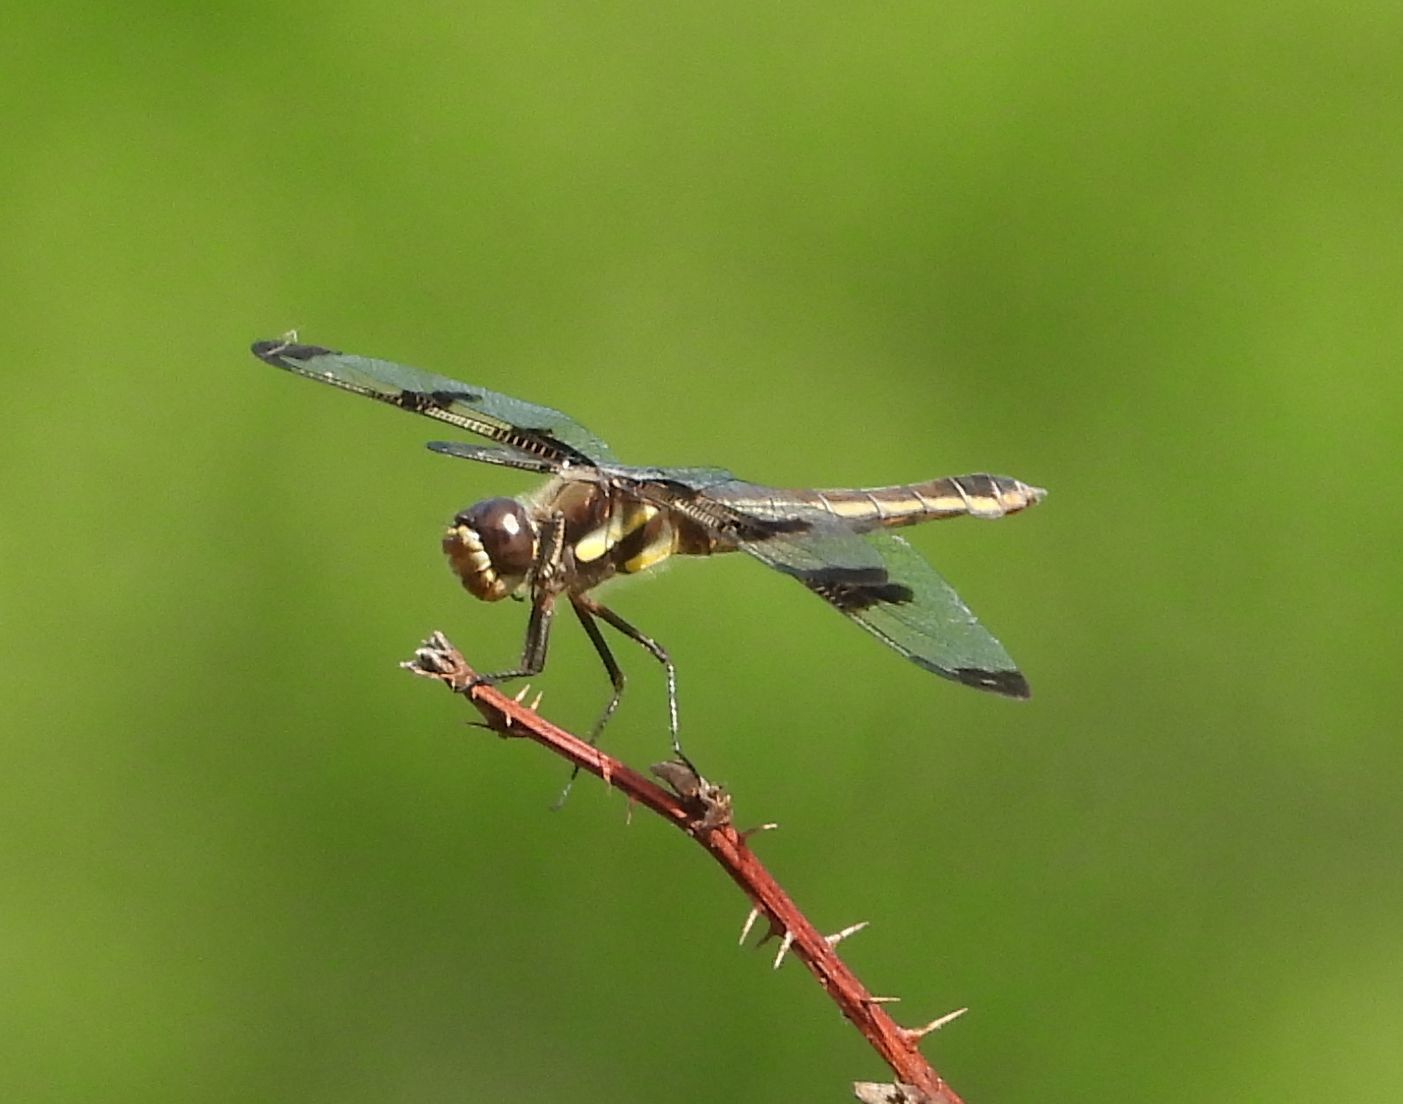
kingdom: Animalia
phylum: Arthropoda
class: Insecta
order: Odonata
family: Libellulidae
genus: Libellula
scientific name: Libellula pulchella
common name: Twelve-spotted skimmer
